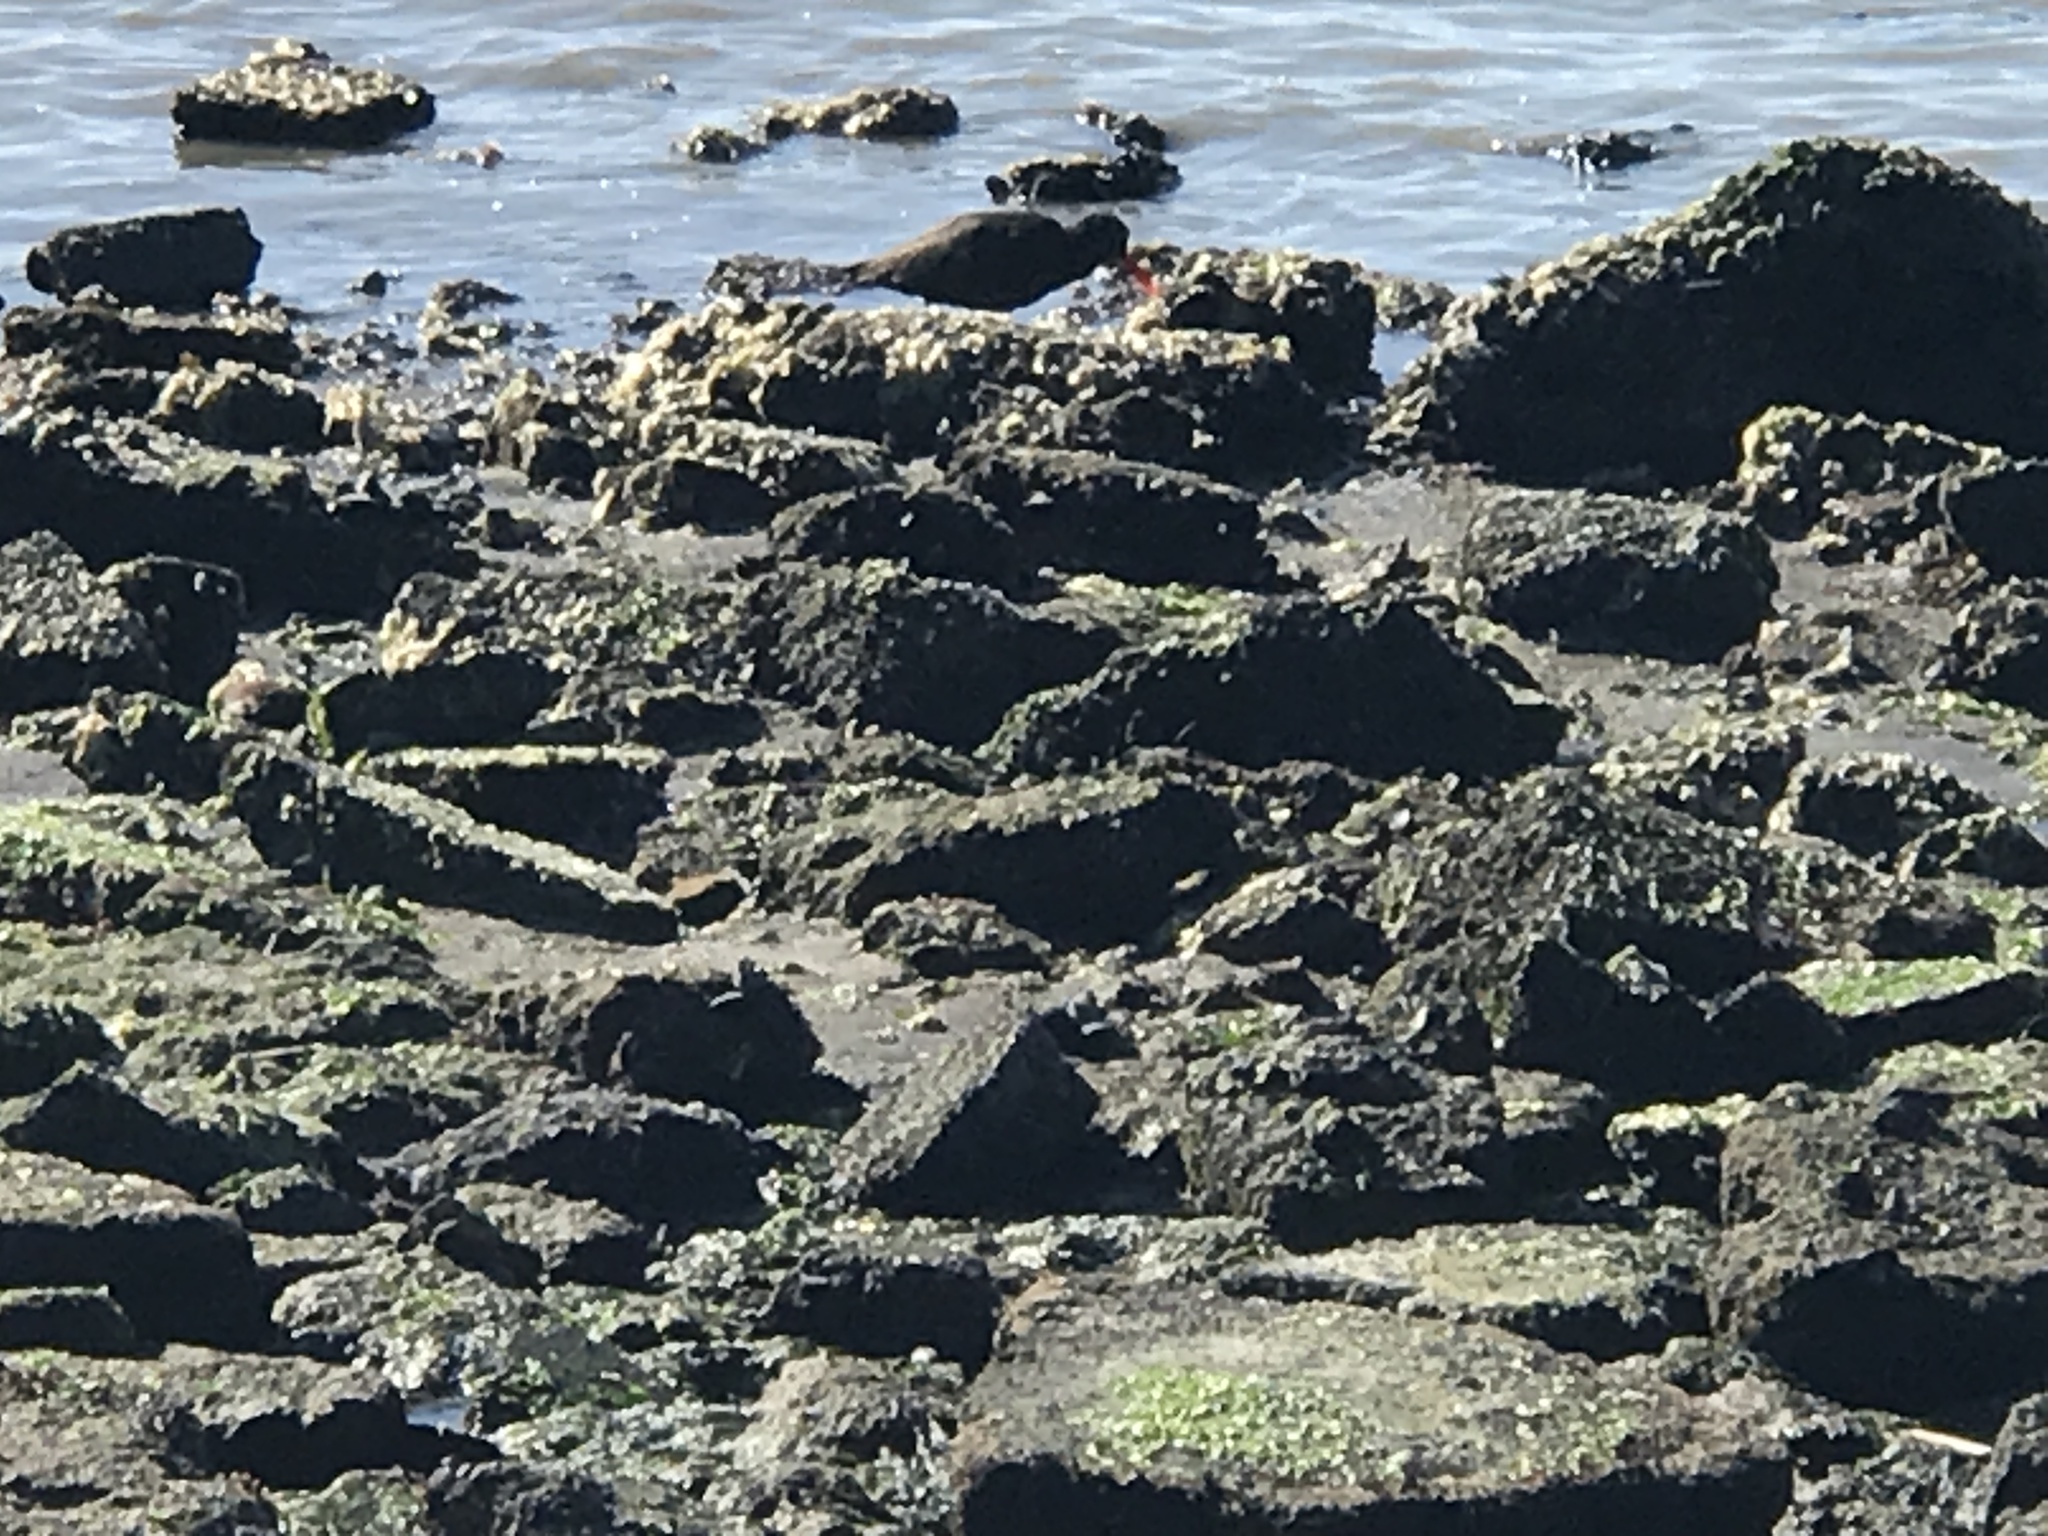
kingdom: Animalia
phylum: Chordata
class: Aves
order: Charadriiformes
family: Haematopodidae
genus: Haematopus
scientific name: Haematopus bachmani
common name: Black oystercatcher
